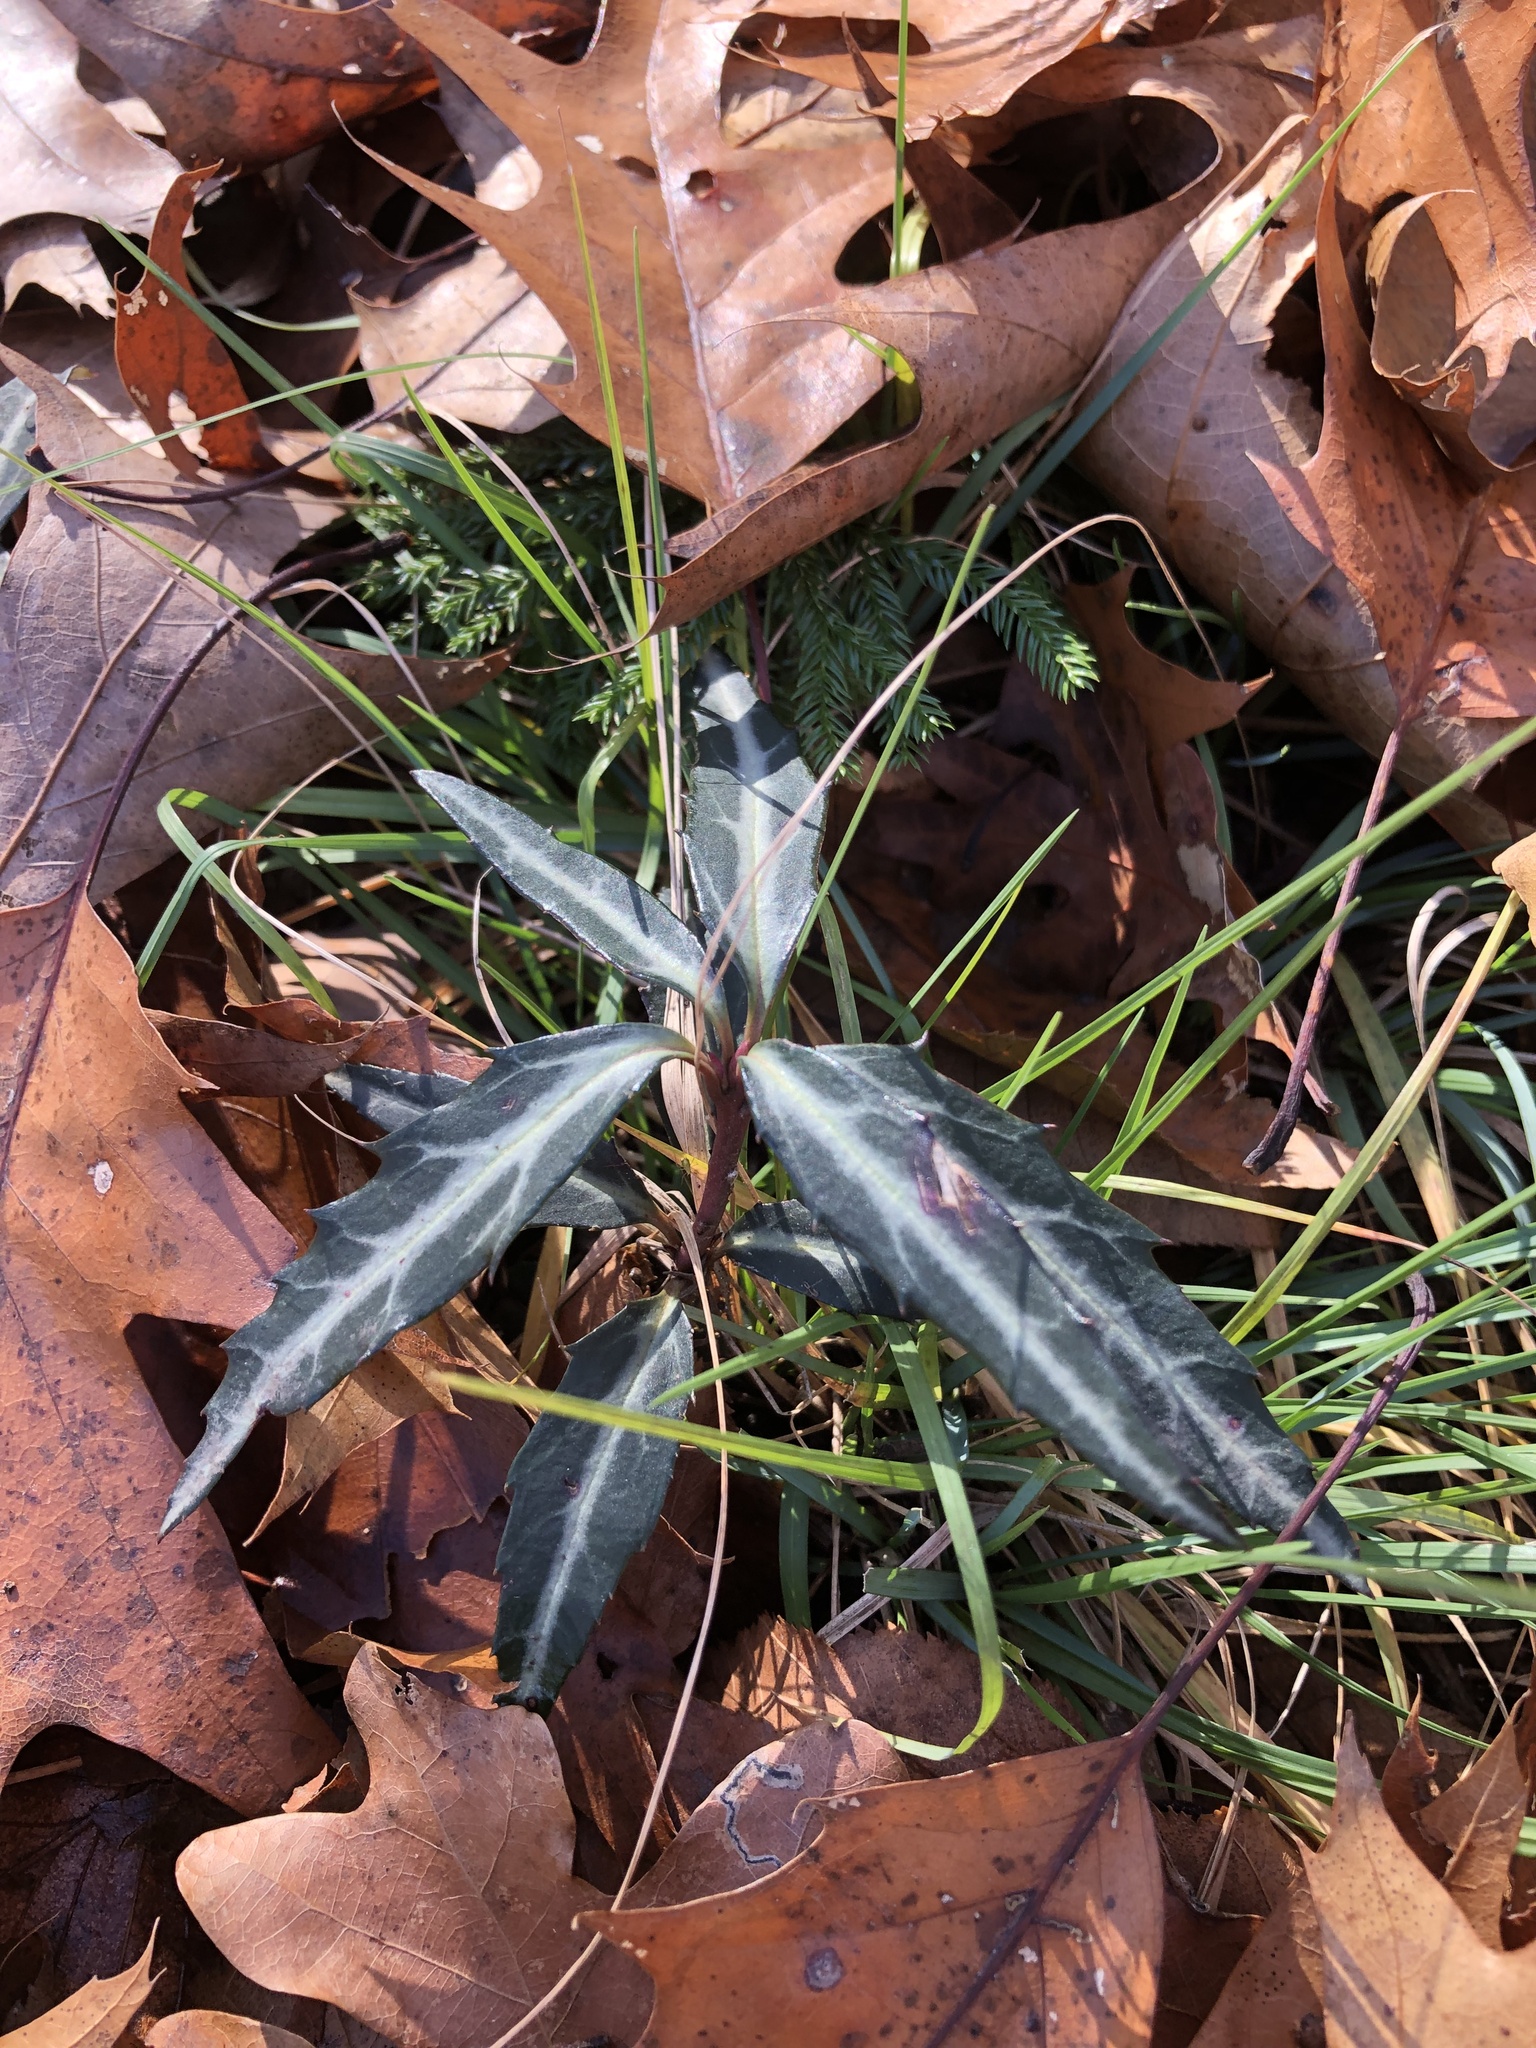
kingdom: Plantae
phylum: Tracheophyta
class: Magnoliopsida
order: Ericales
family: Ericaceae
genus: Chimaphila
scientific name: Chimaphila maculata
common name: Spotted pipsissewa
